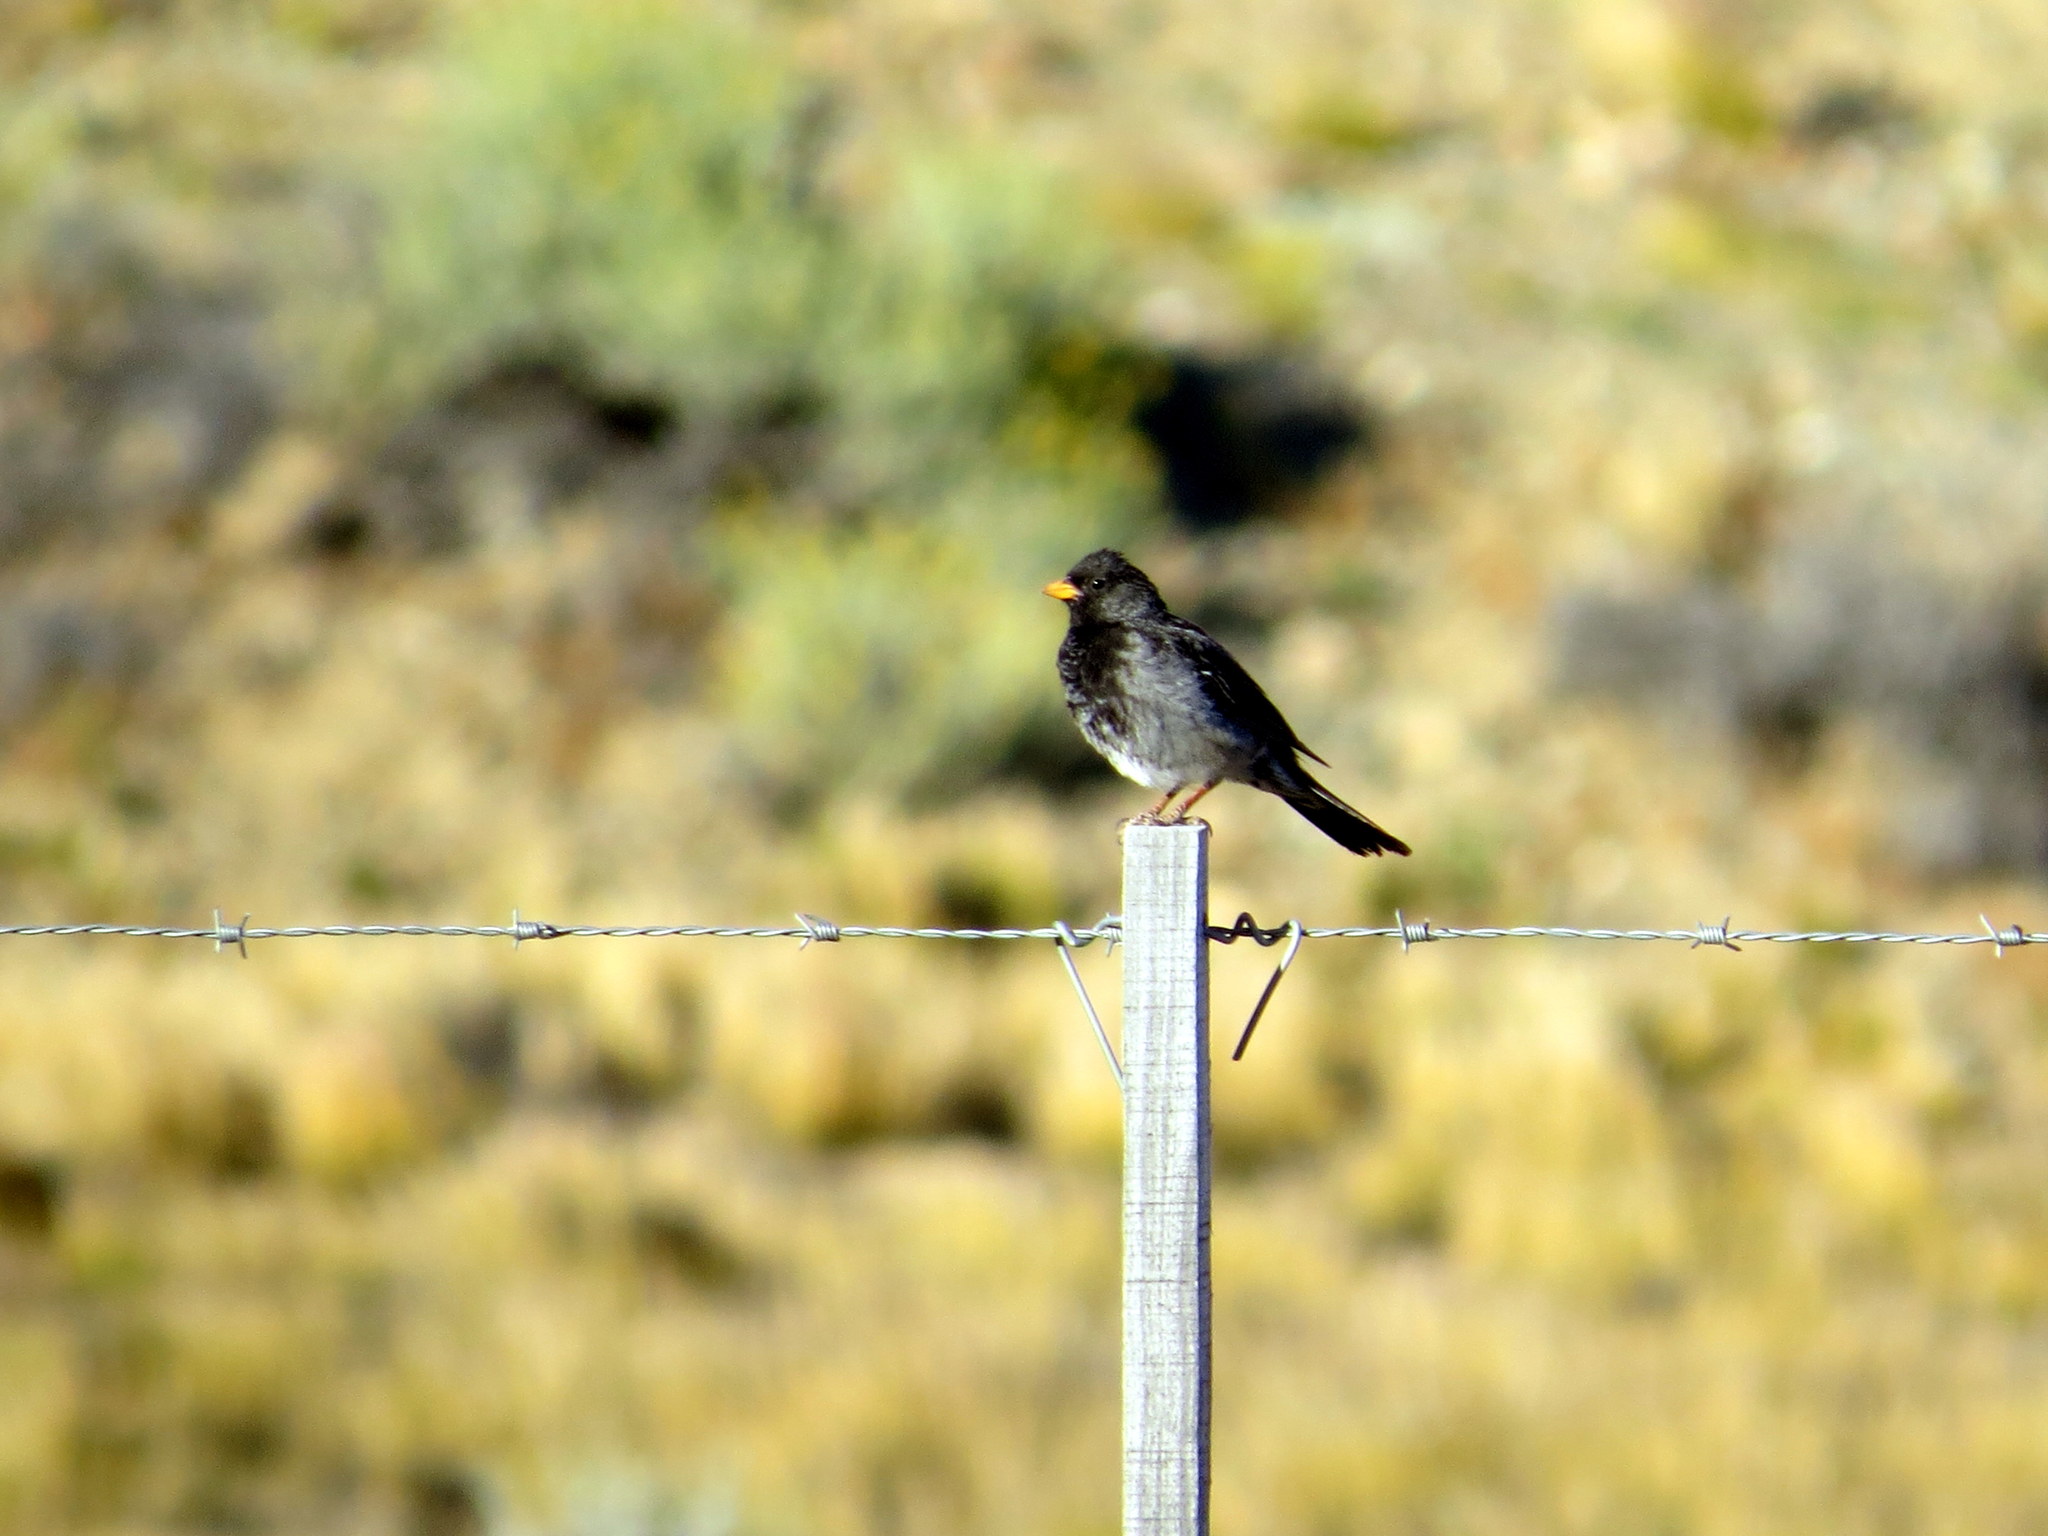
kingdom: Animalia
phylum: Chordata
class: Aves
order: Passeriformes
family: Thraupidae
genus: Rhopospina
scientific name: Rhopospina fruticeti
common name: Mourning sierra finch
